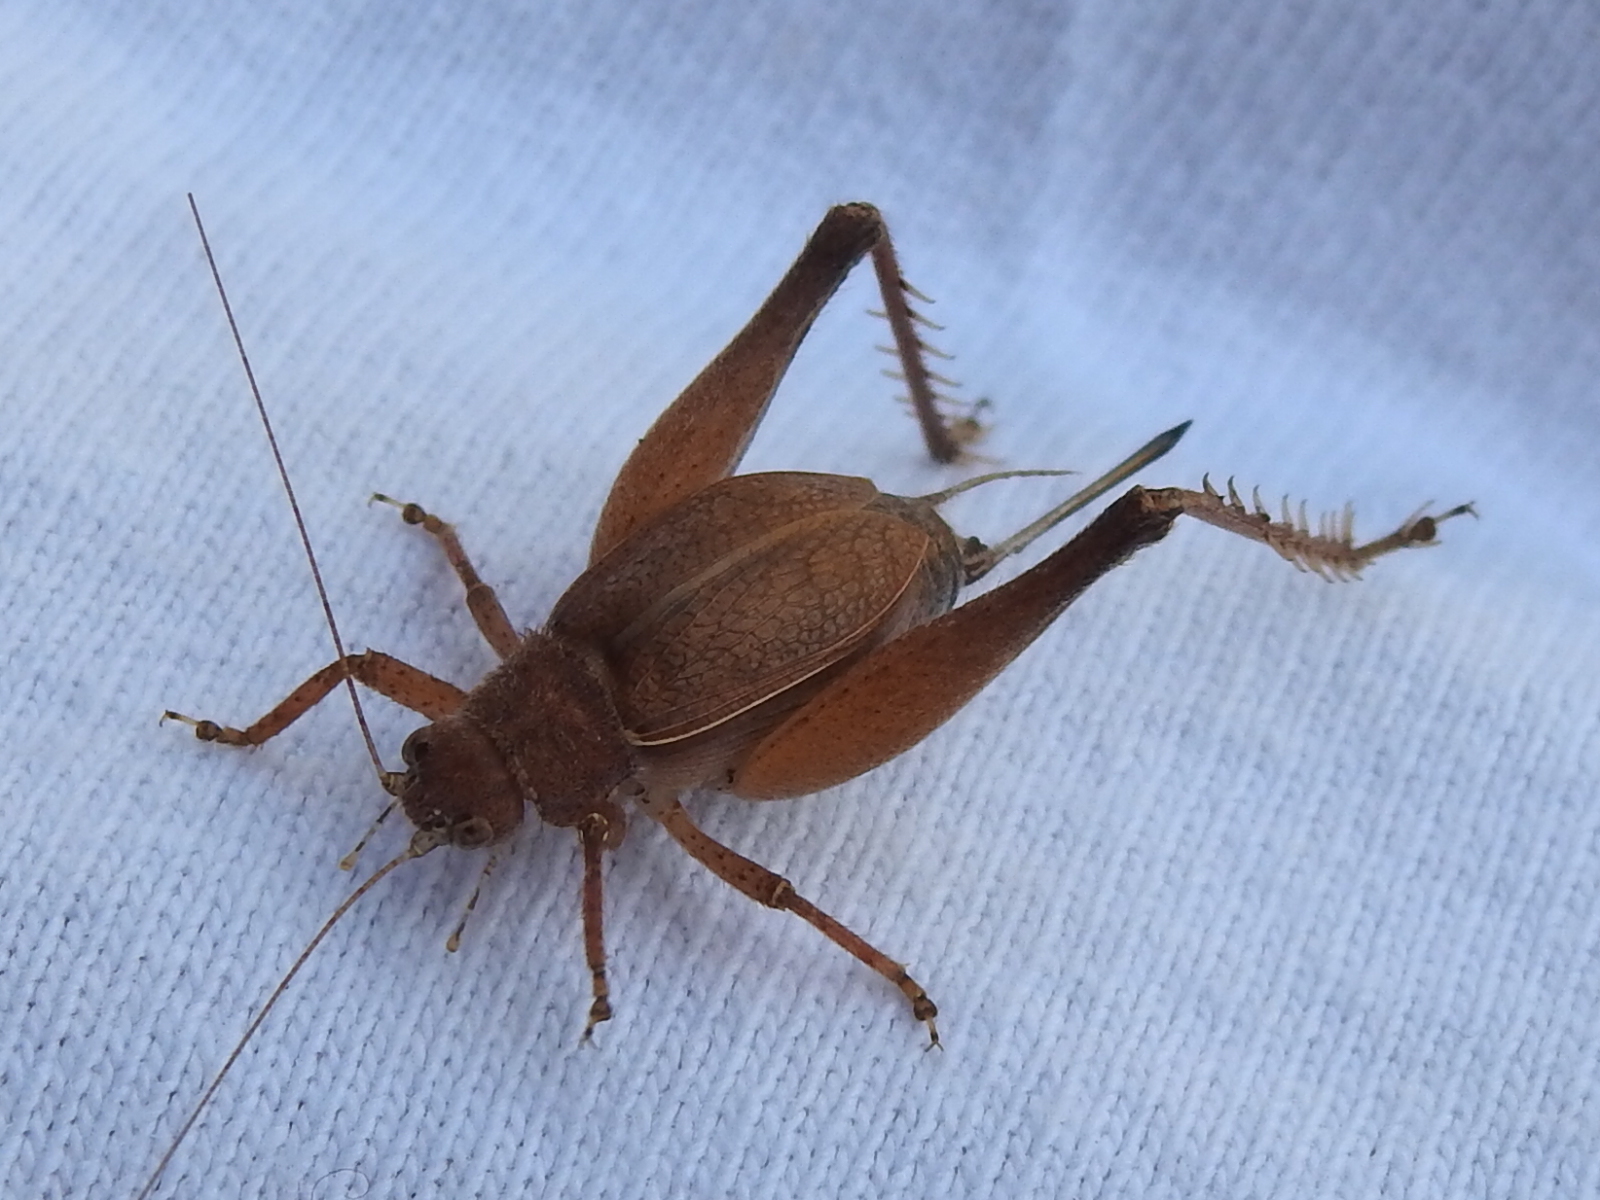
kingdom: Animalia
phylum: Arthropoda
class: Insecta
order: Orthoptera
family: Gryllidae
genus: Hapithus
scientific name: Hapithus agitator
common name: Restless bush cricket
